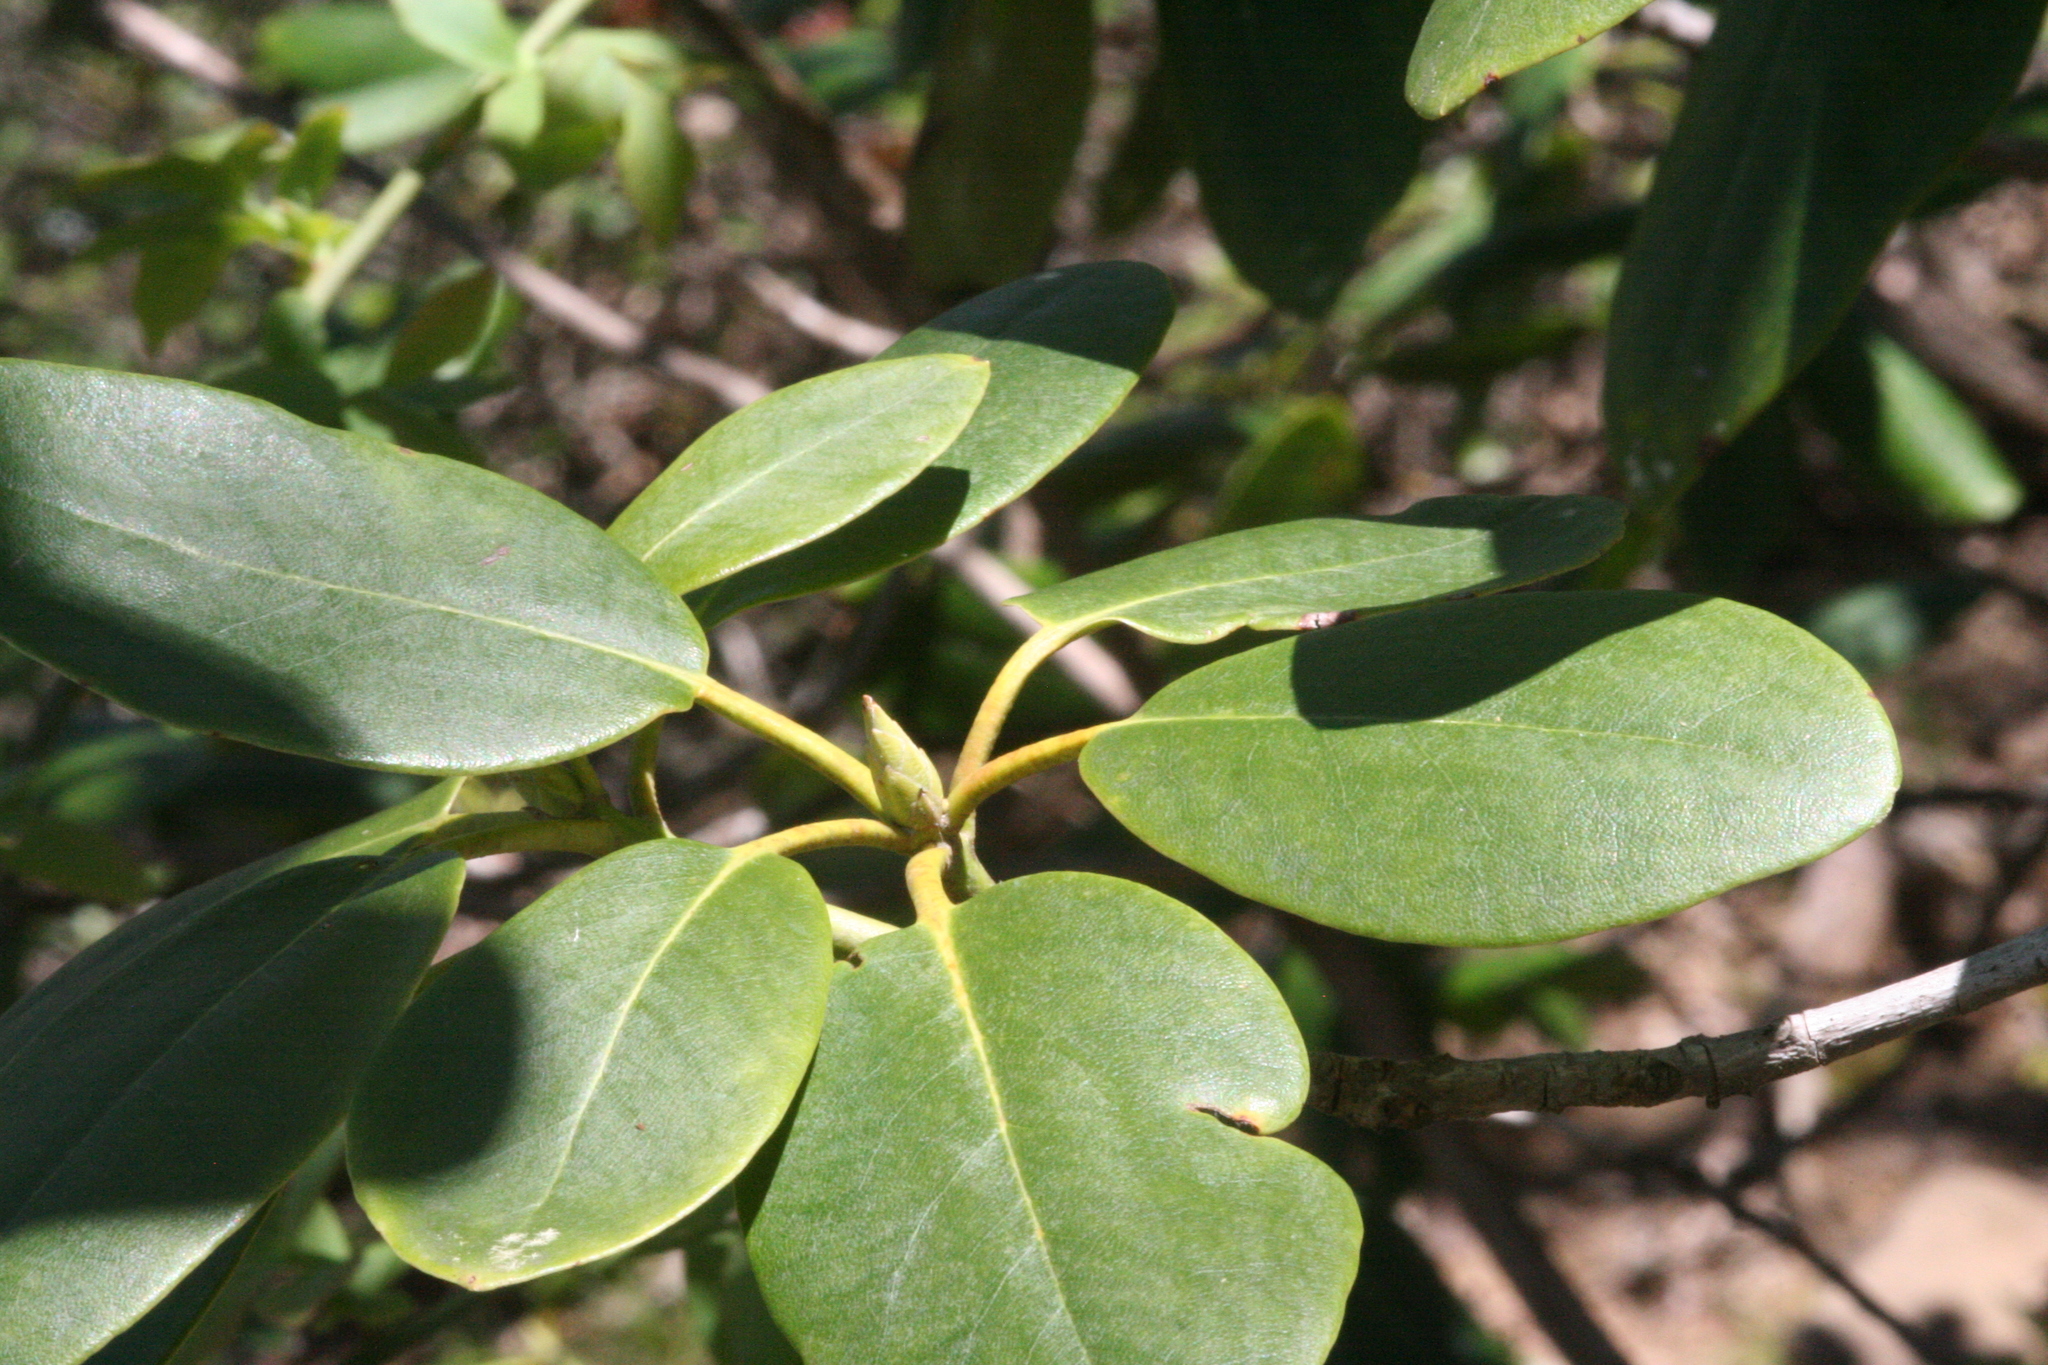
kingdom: Plantae
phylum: Tracheophyta
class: Magnoliopsida
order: Ericales
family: Ericaceae
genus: Rhododendron
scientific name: Rhododendron catawbiense
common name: Catawba rhododendron
